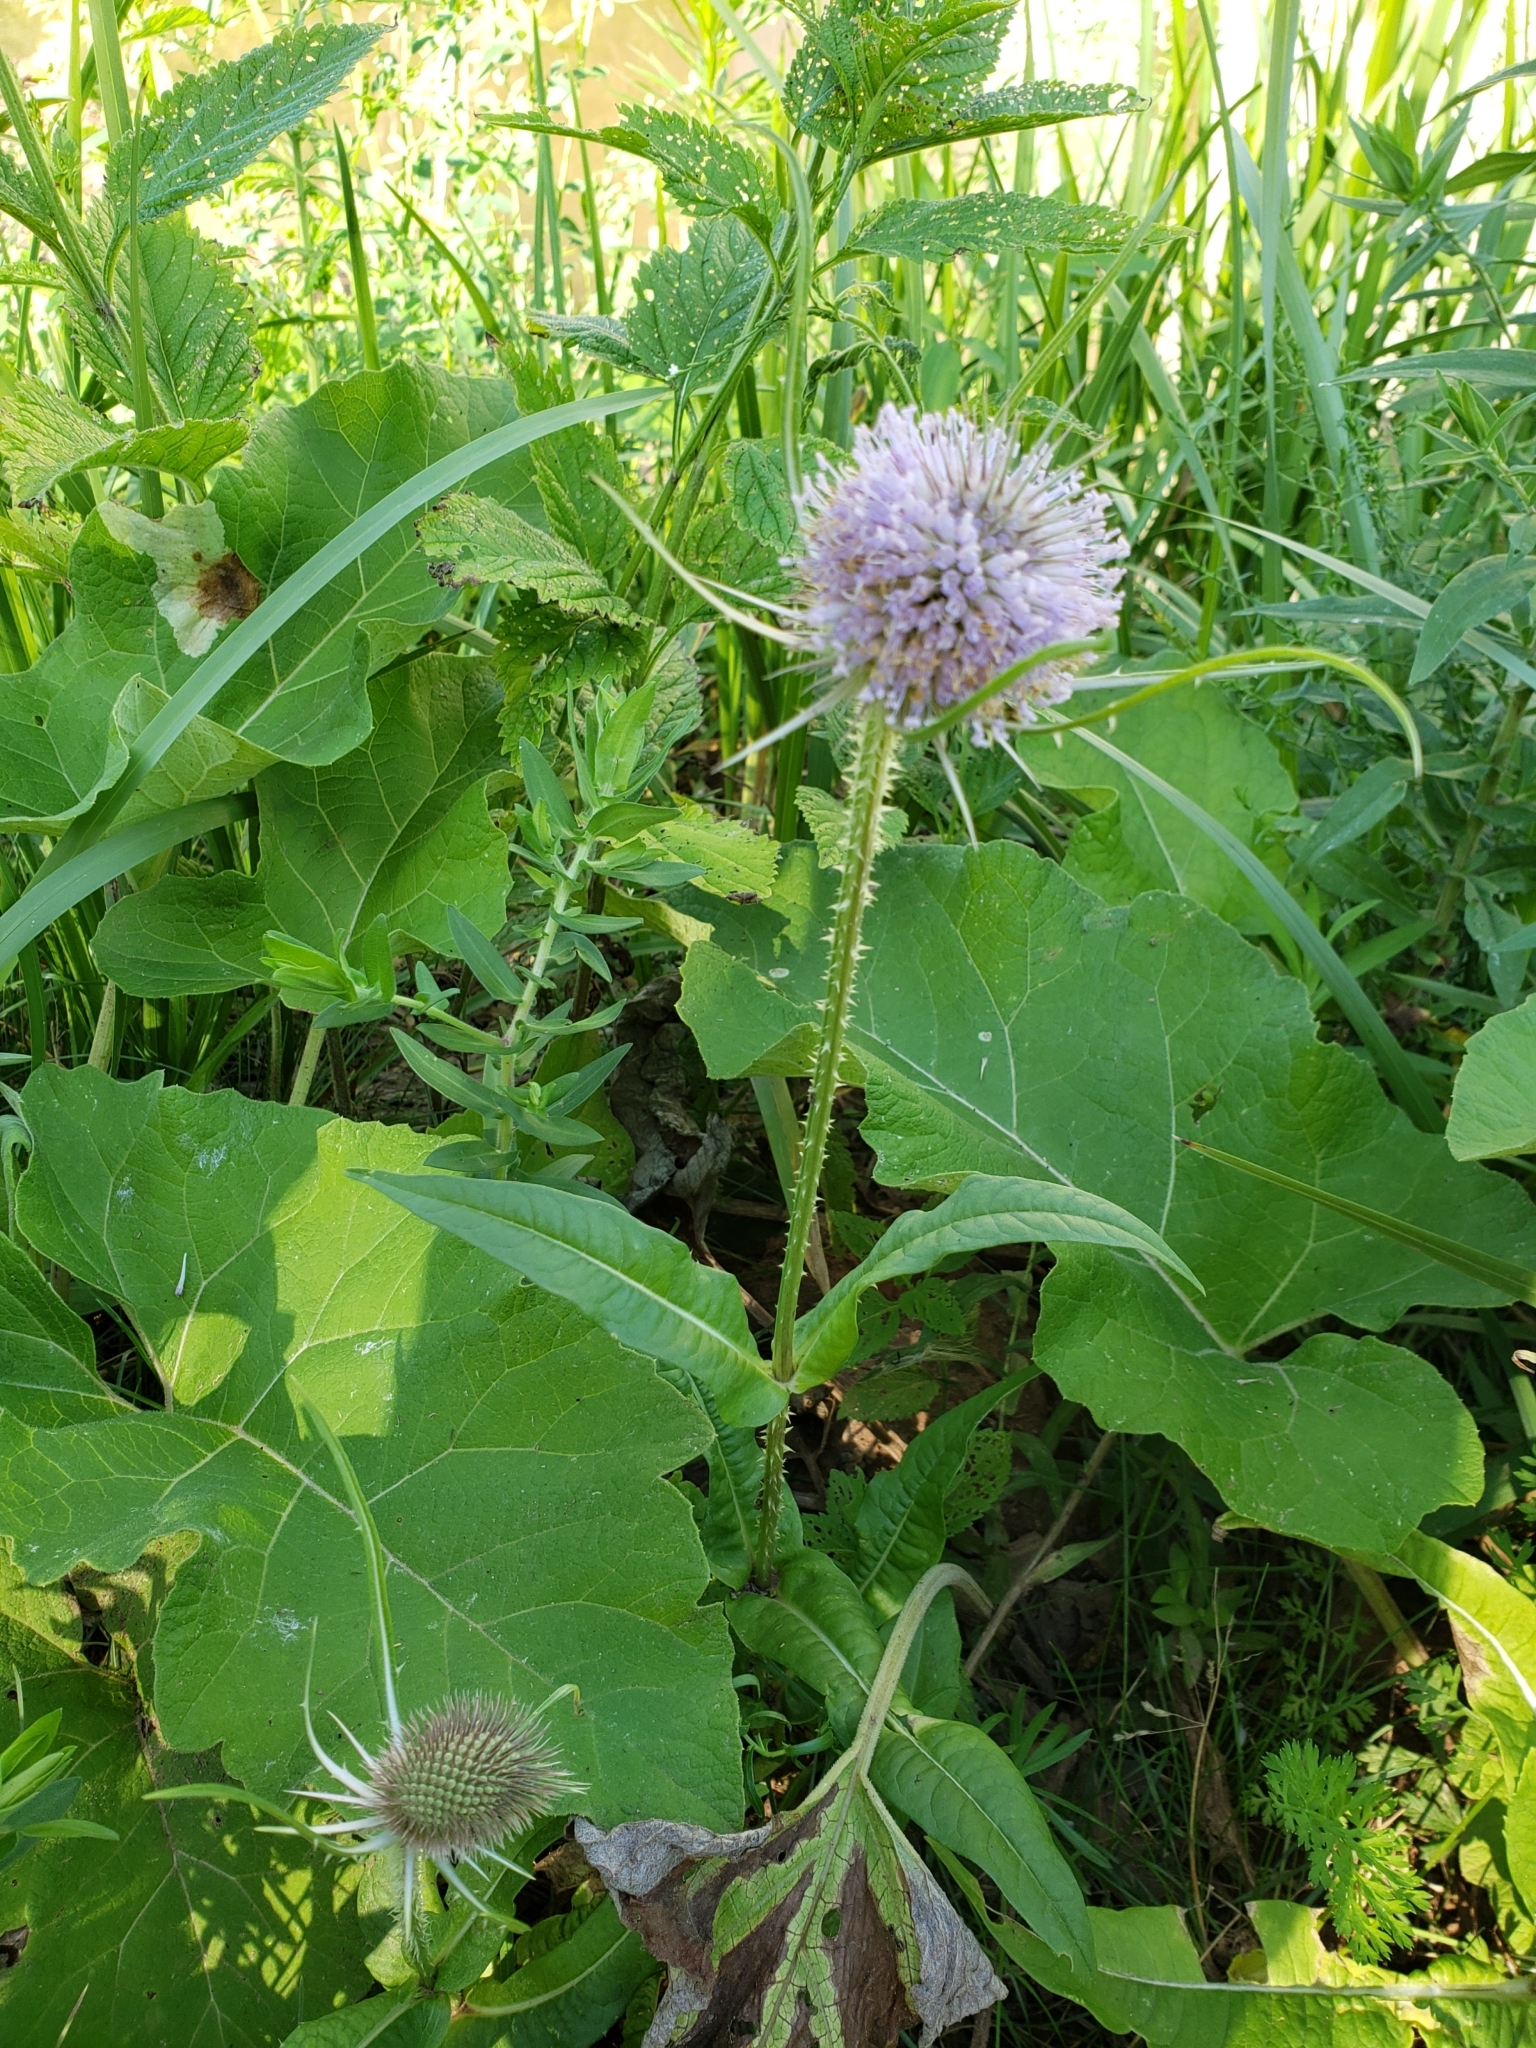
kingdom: Plantae
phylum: Tracheophyta
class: Magnoliopsida
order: Dipsacales
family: Caprifoliaceae
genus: Dipsacus
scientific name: Dipsacus fullonum
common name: Teasel
